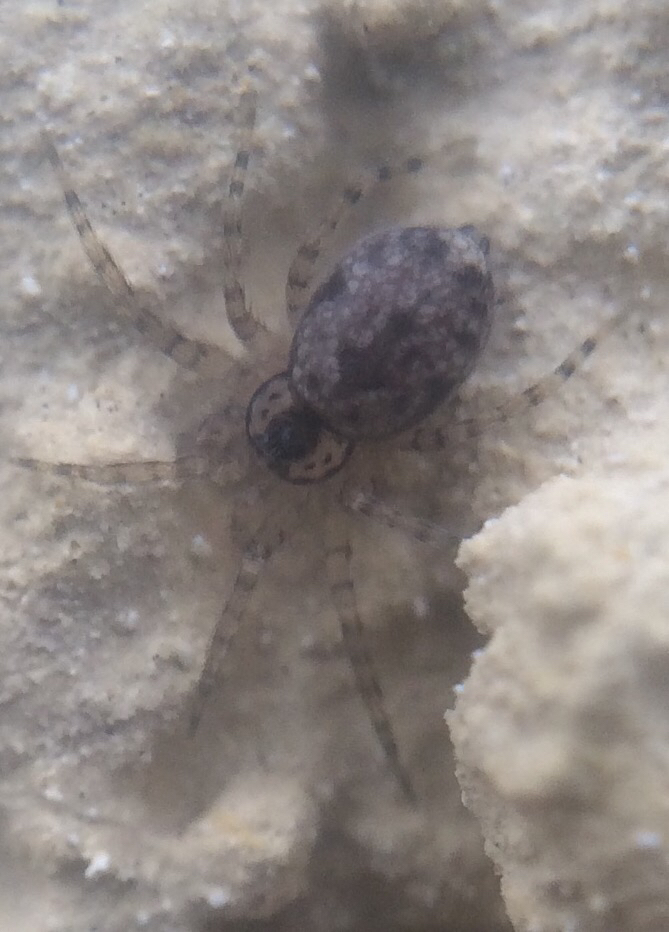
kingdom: Animalia
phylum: Arthropoda
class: Arachnida
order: Araneae
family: Oecobiidae
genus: Oecobius
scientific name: Oecobius navus
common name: Flatmesh weaver
